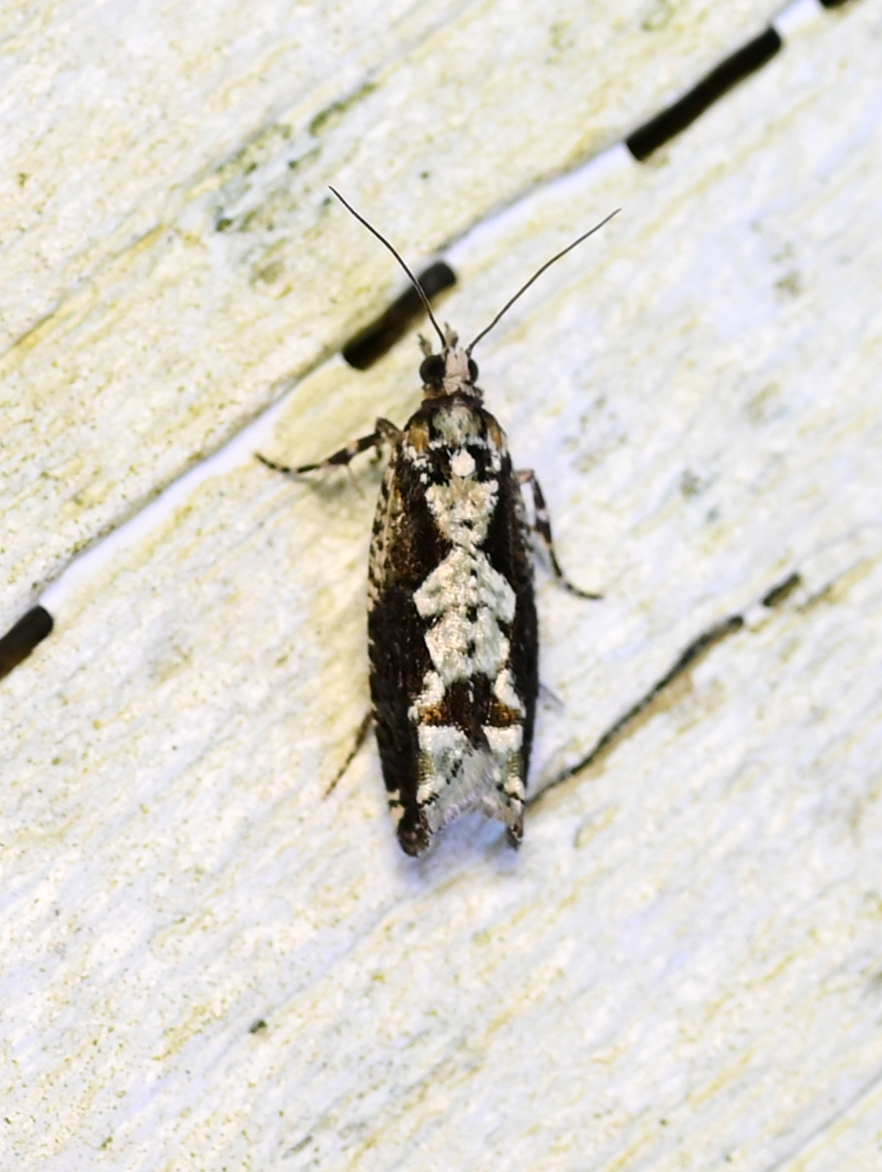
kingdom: Animalia
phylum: Arthropoda
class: Insecta
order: Lepidoptera
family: Tortricidae
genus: Chimoptesis
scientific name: Chimoptesis pennsylvaniana
